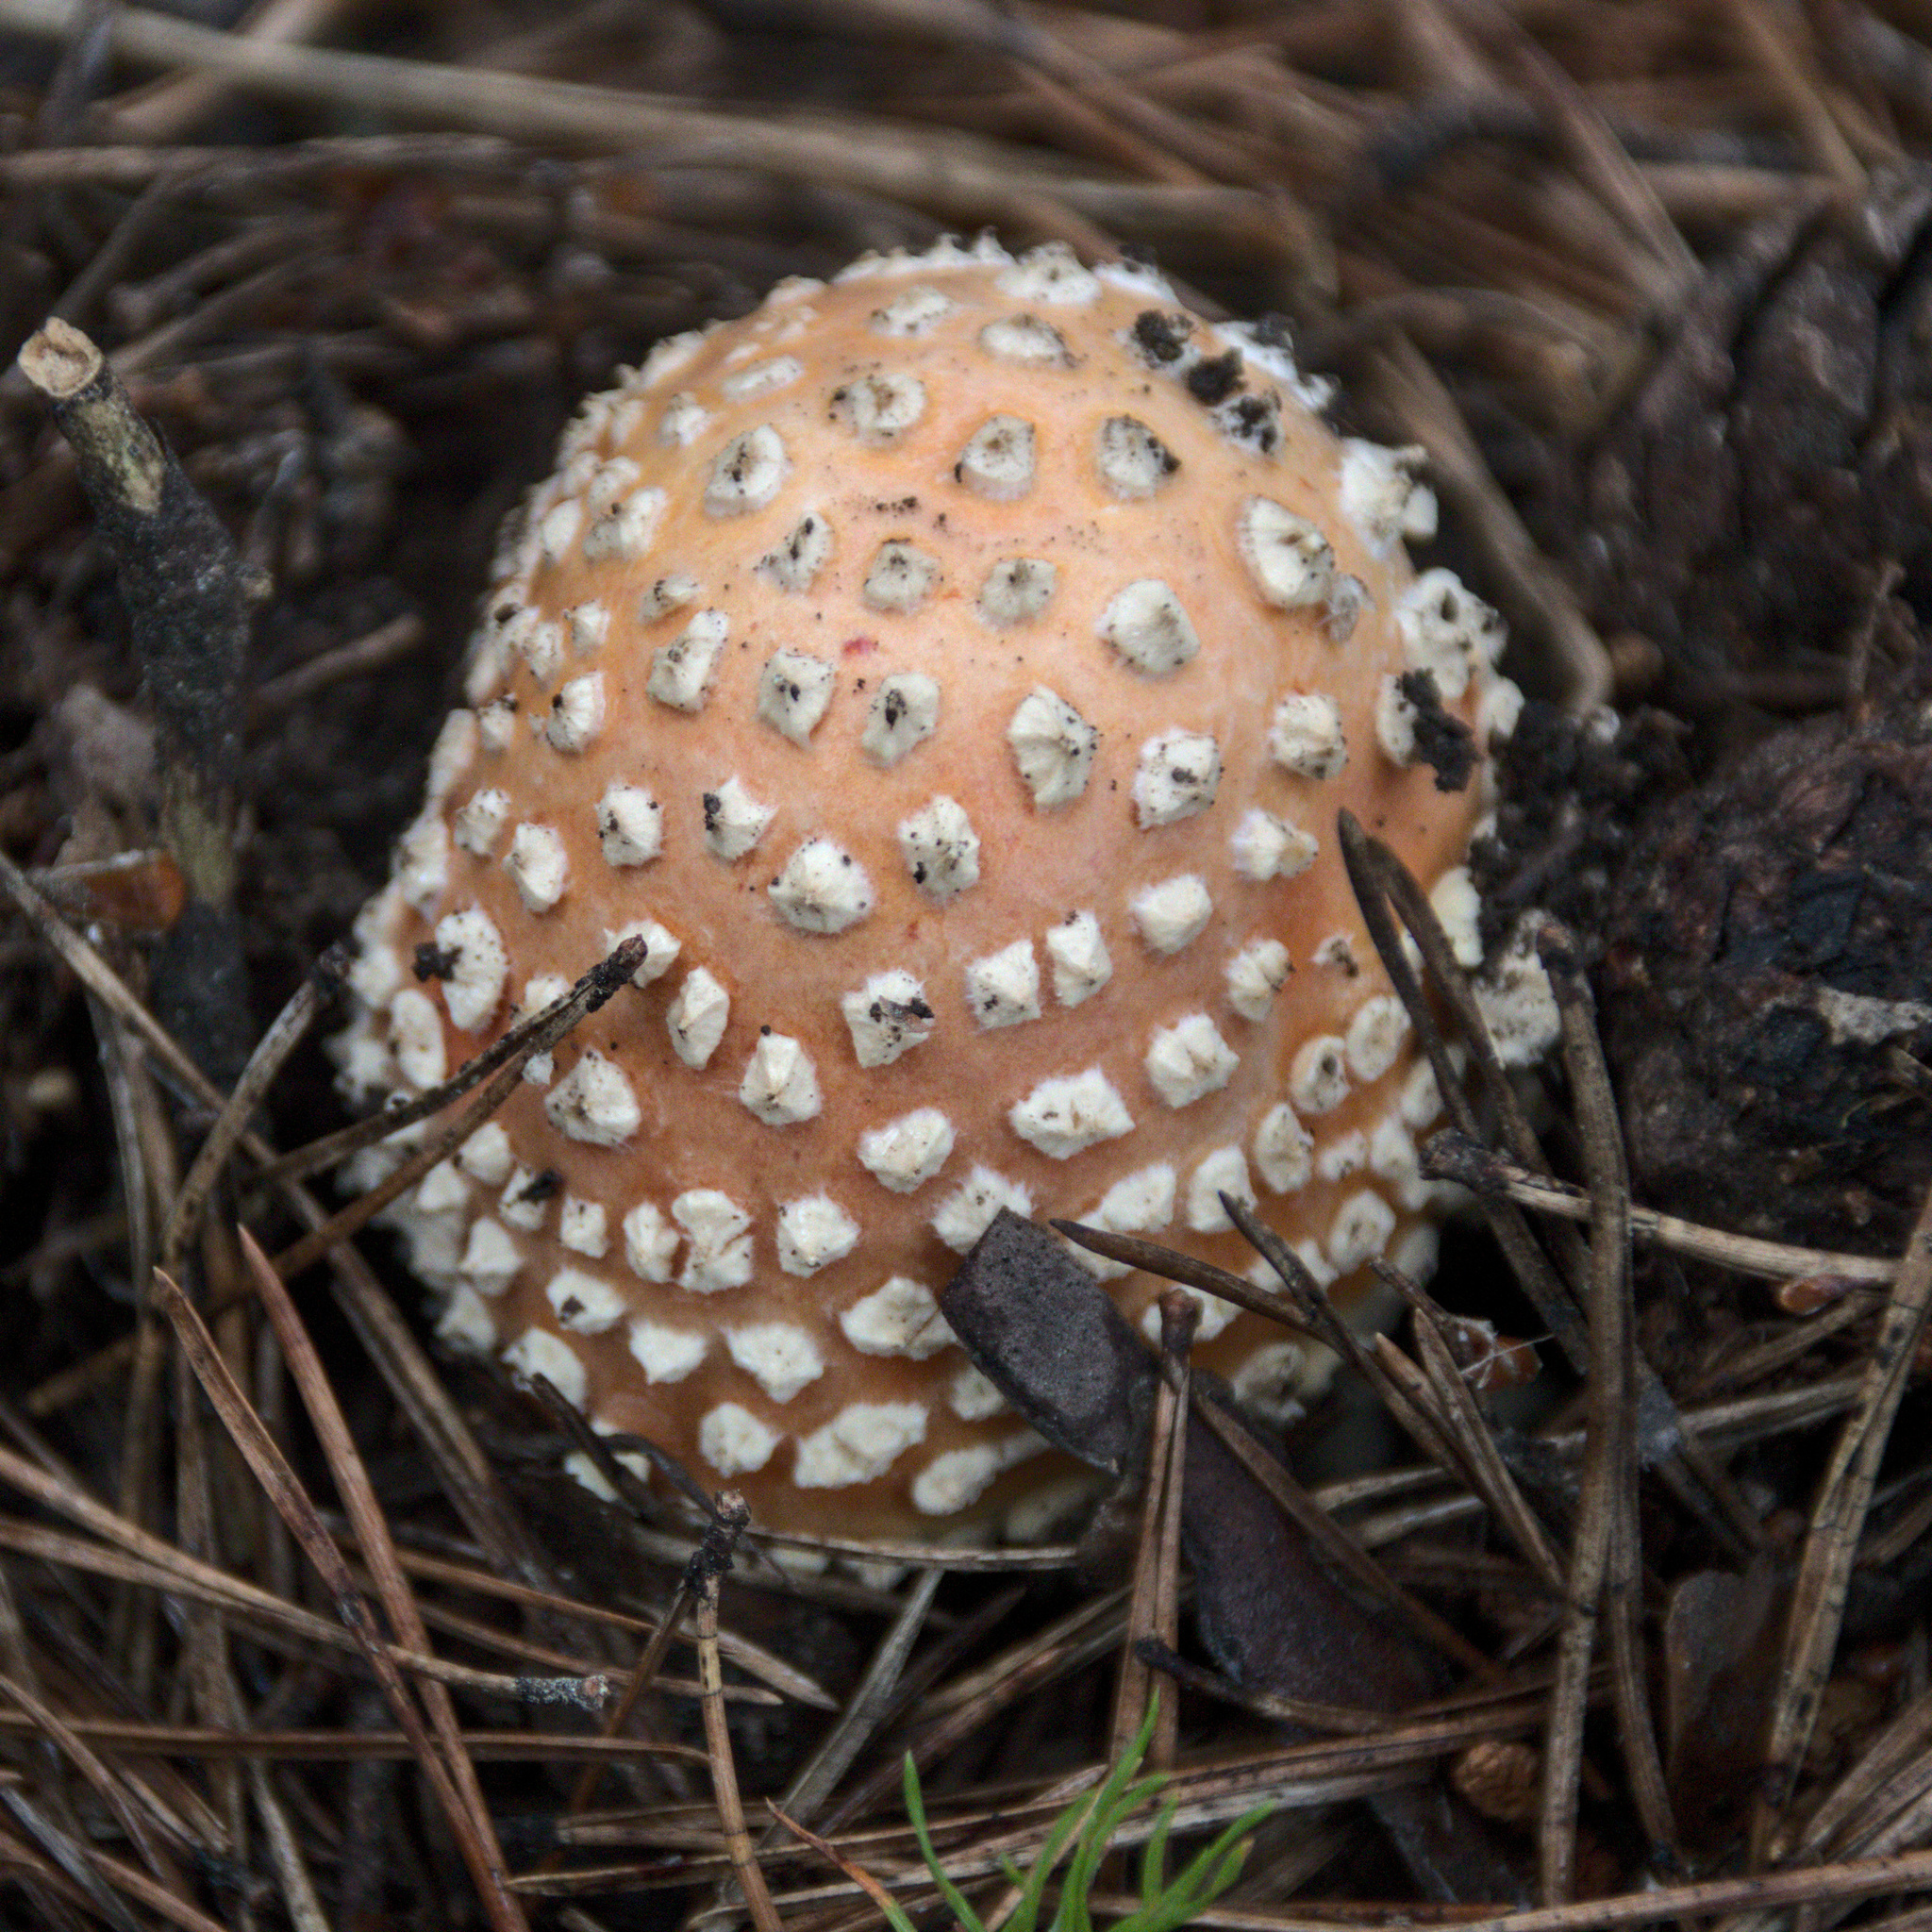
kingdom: Fungi
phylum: Basidiomycota
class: Agaricomycetes
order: Agaricales
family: Amanitaceae
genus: Amanita
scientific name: Amanita muscaria
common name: Fly agaric
